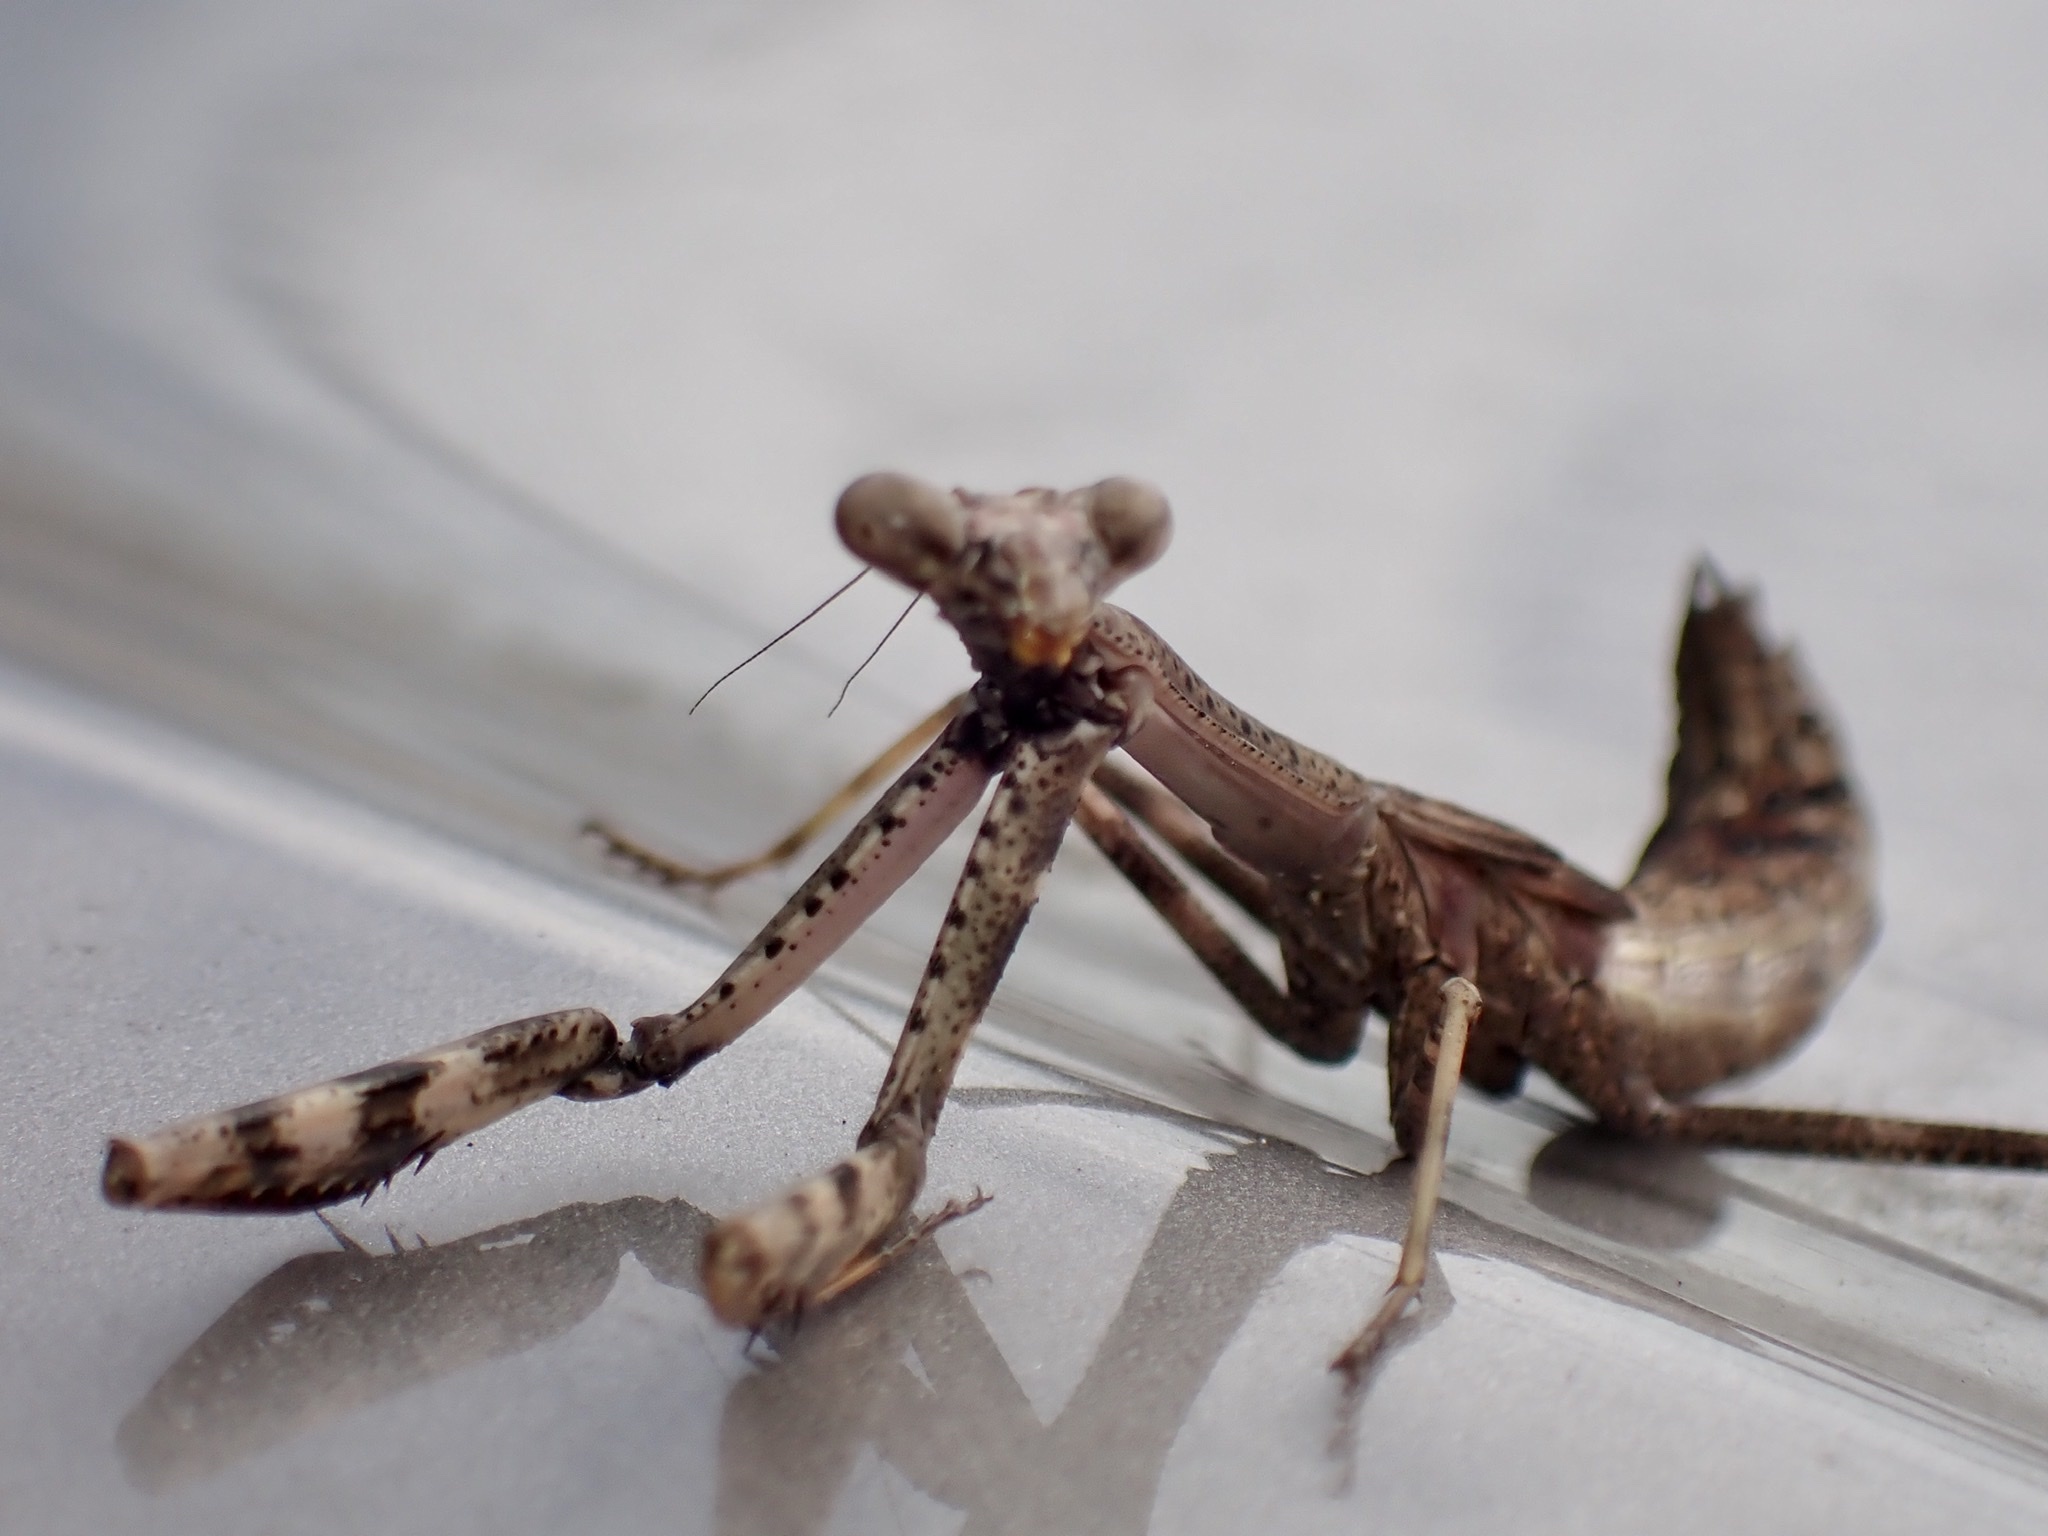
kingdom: Animalia
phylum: Arthropoda
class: Insecta
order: Mantodea
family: Mantidae
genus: Stagmomantis
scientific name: Stagmomantis carolina
